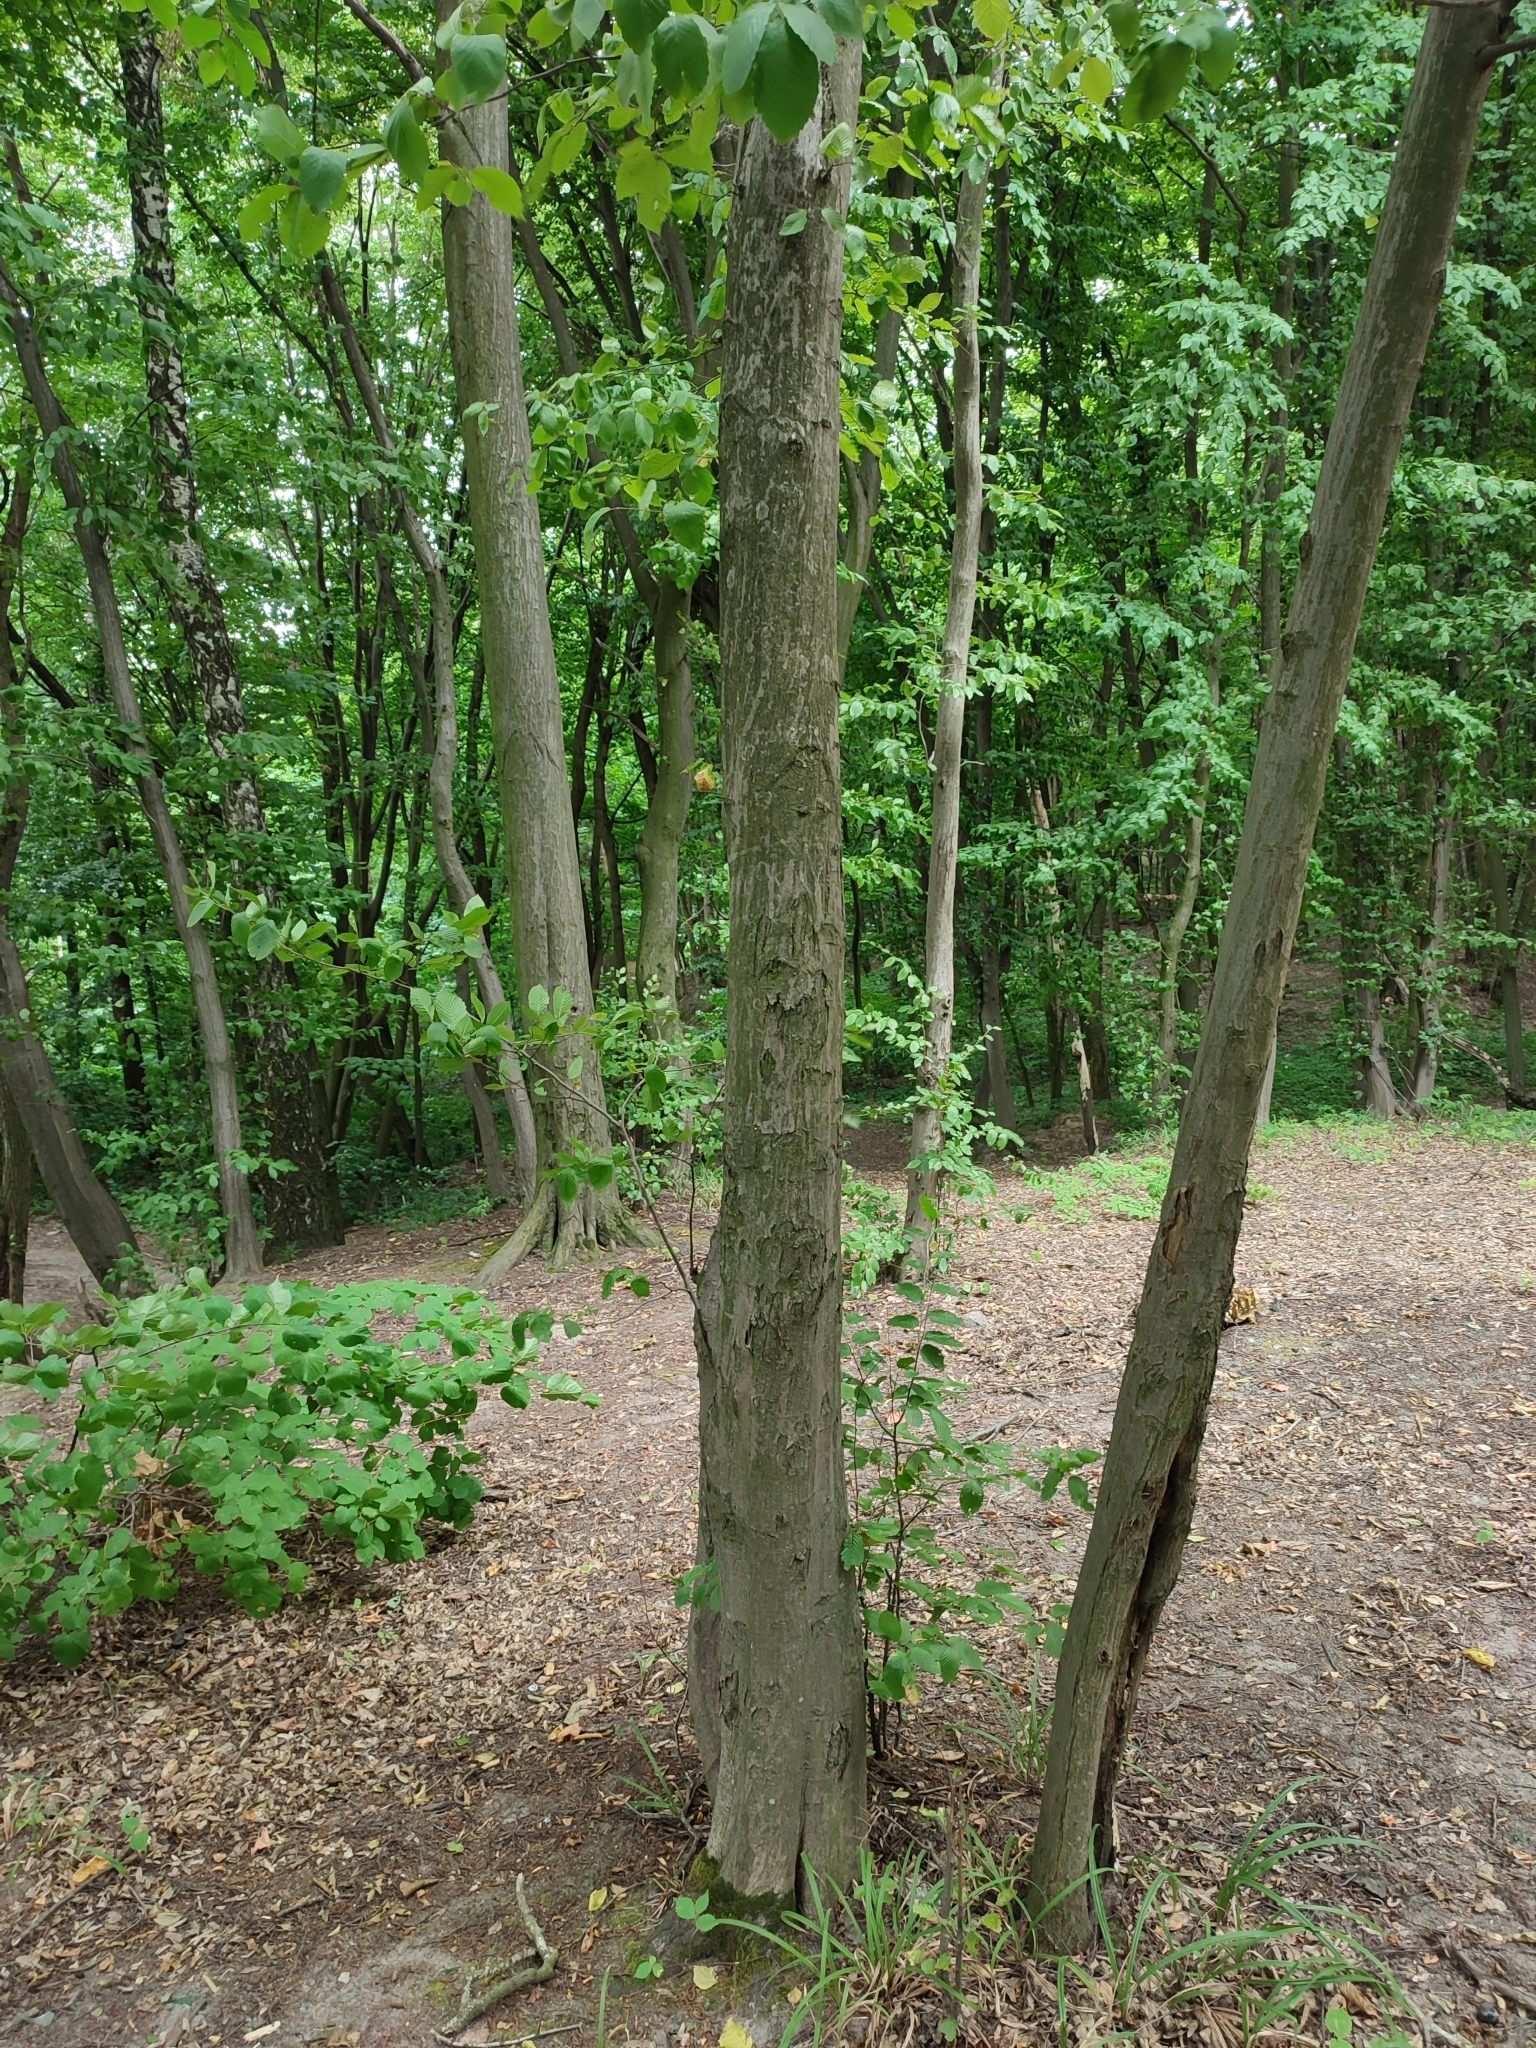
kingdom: Plantae
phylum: Tracheophyta
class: Magnoliopsida
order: Fagales
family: Betulaceae
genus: Carpinus
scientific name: Carpinus betulus
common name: Hornbeam
